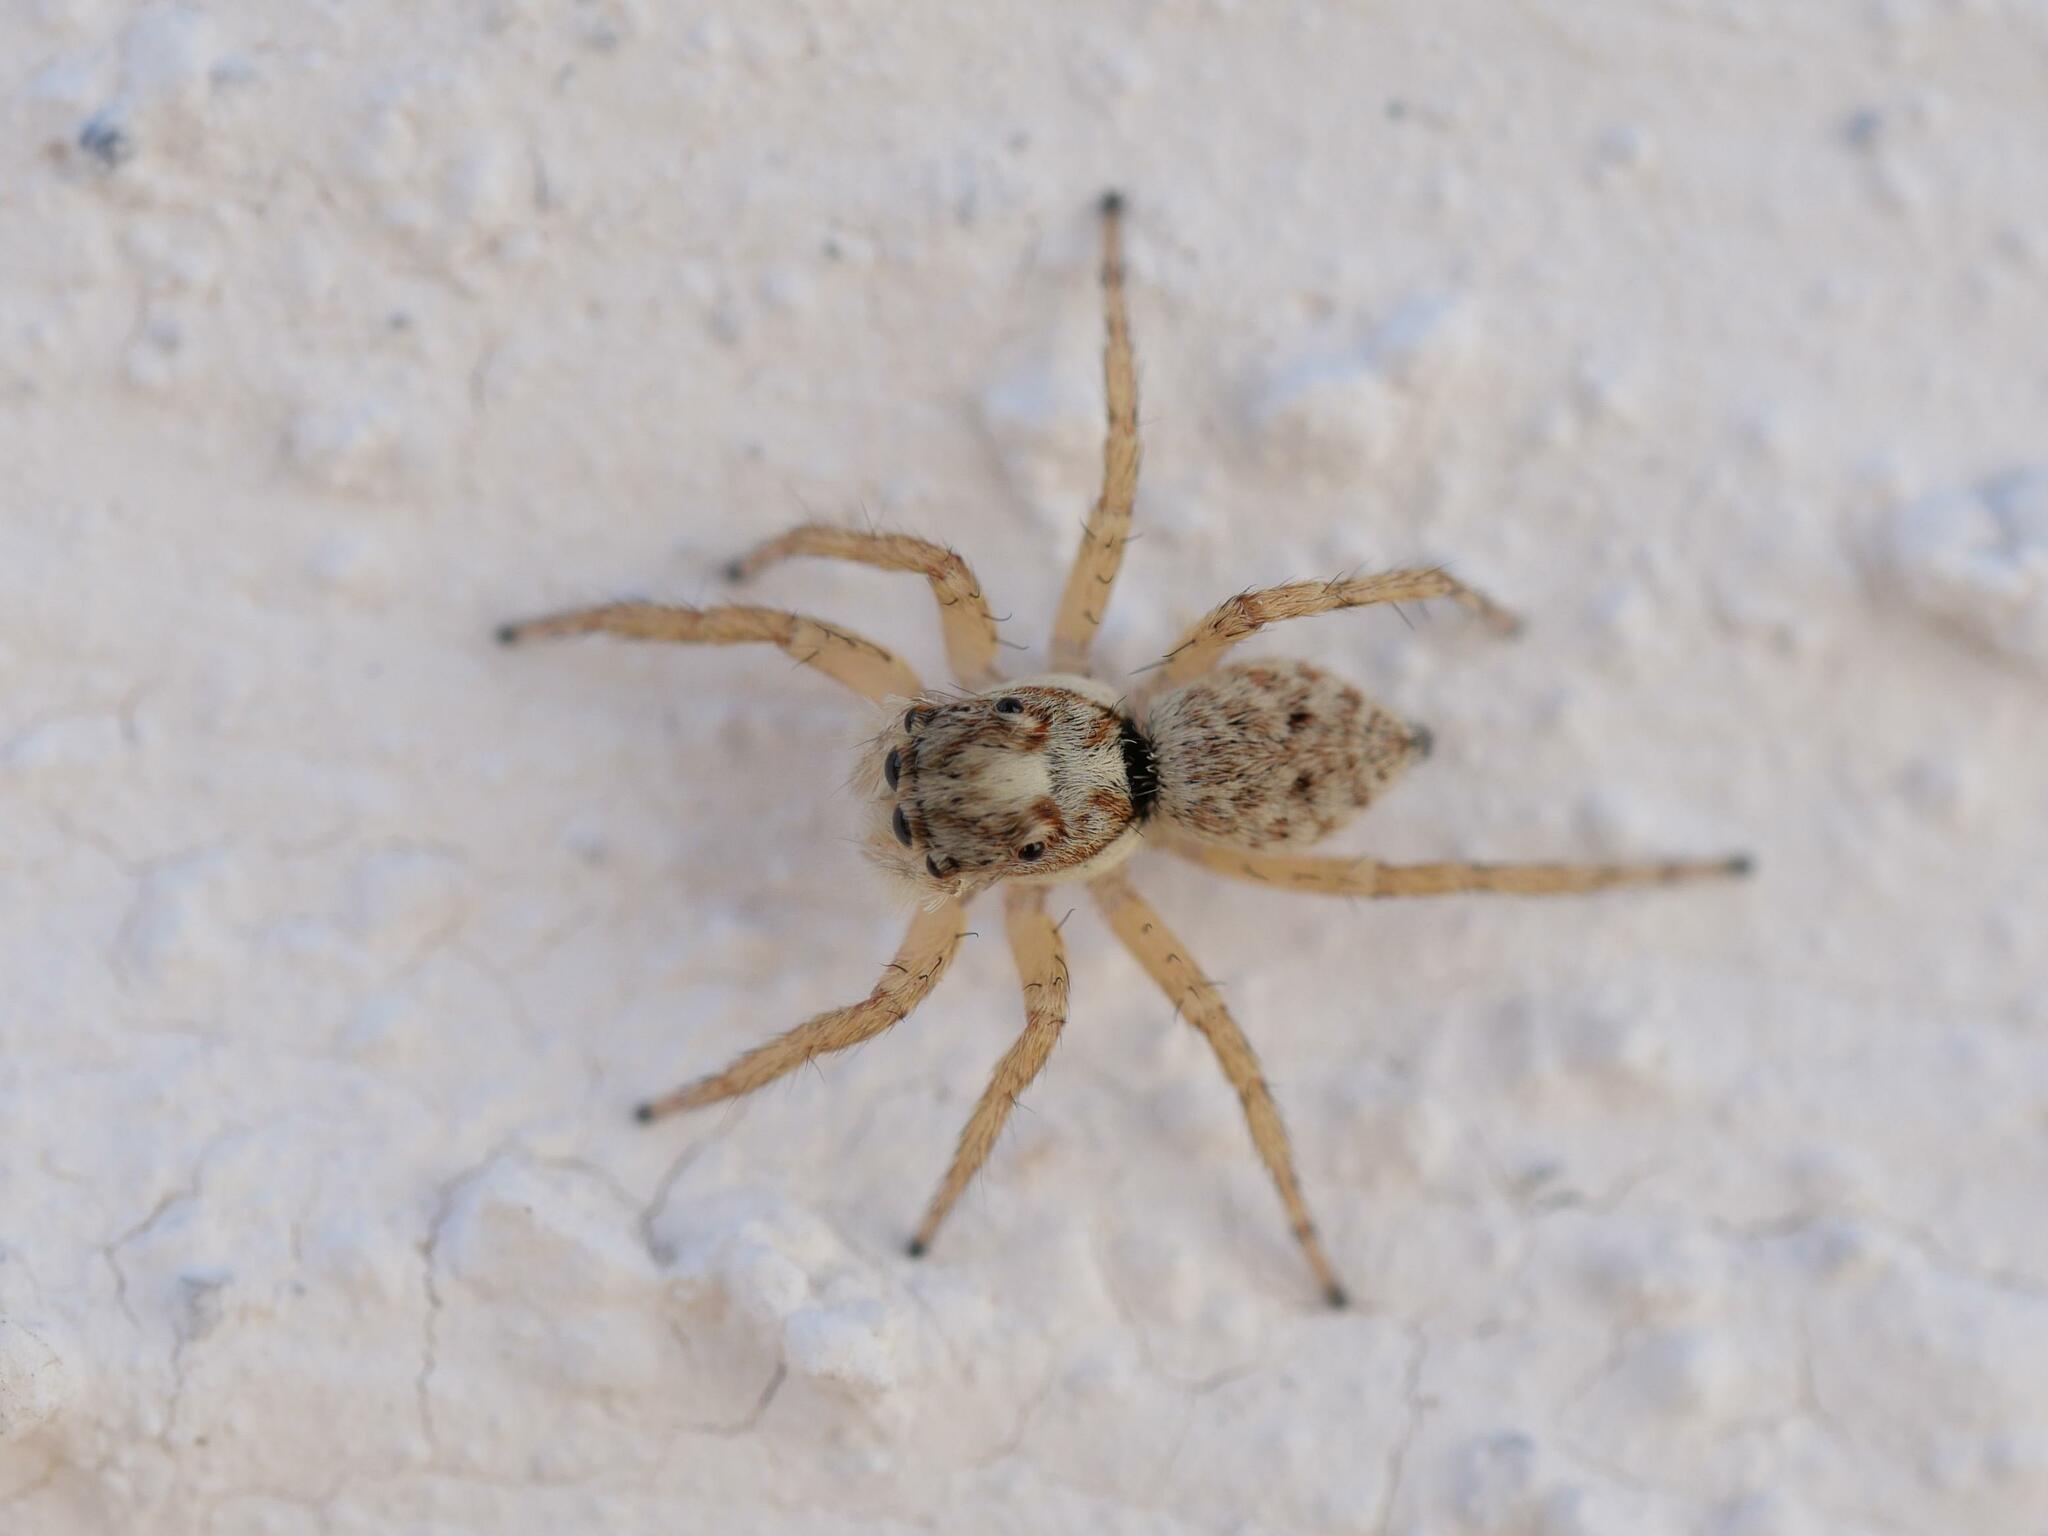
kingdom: Animalia
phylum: Arthropoda
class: Arachnida
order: Araneae
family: Salticidae
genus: Menemerus
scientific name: Menemerus semilimbatus
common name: Jumping spider
